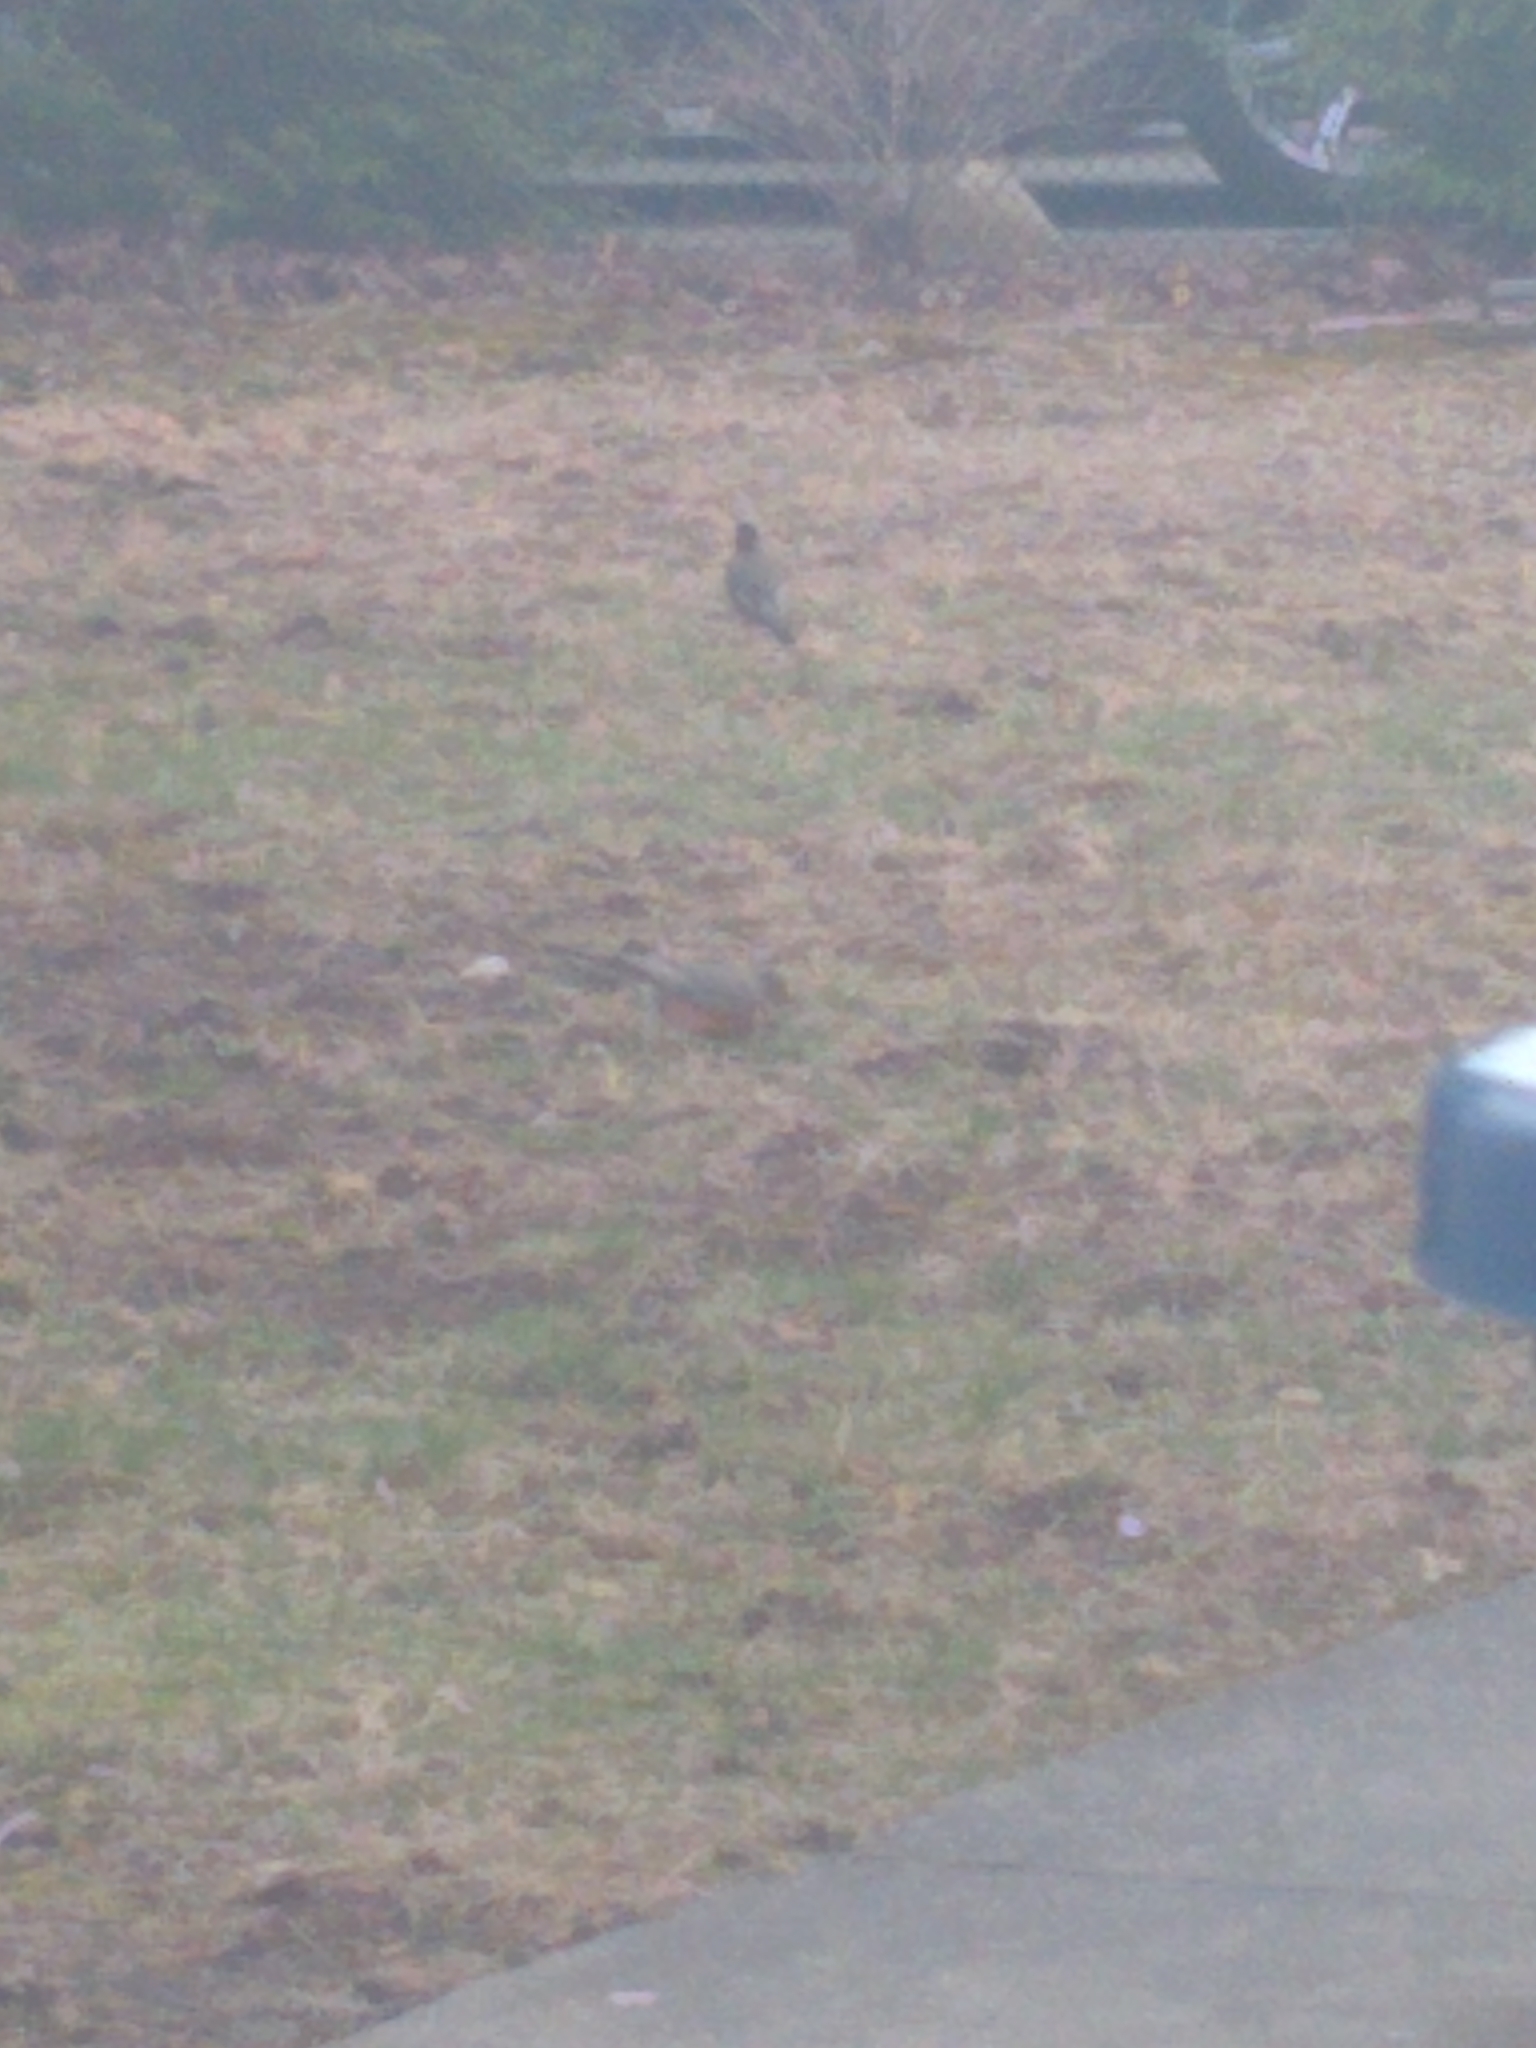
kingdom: Animalia
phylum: Chordata
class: Aves
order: Passeriformes
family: Turdidae
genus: Turdus
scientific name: Turdus migratorius
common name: American robin
